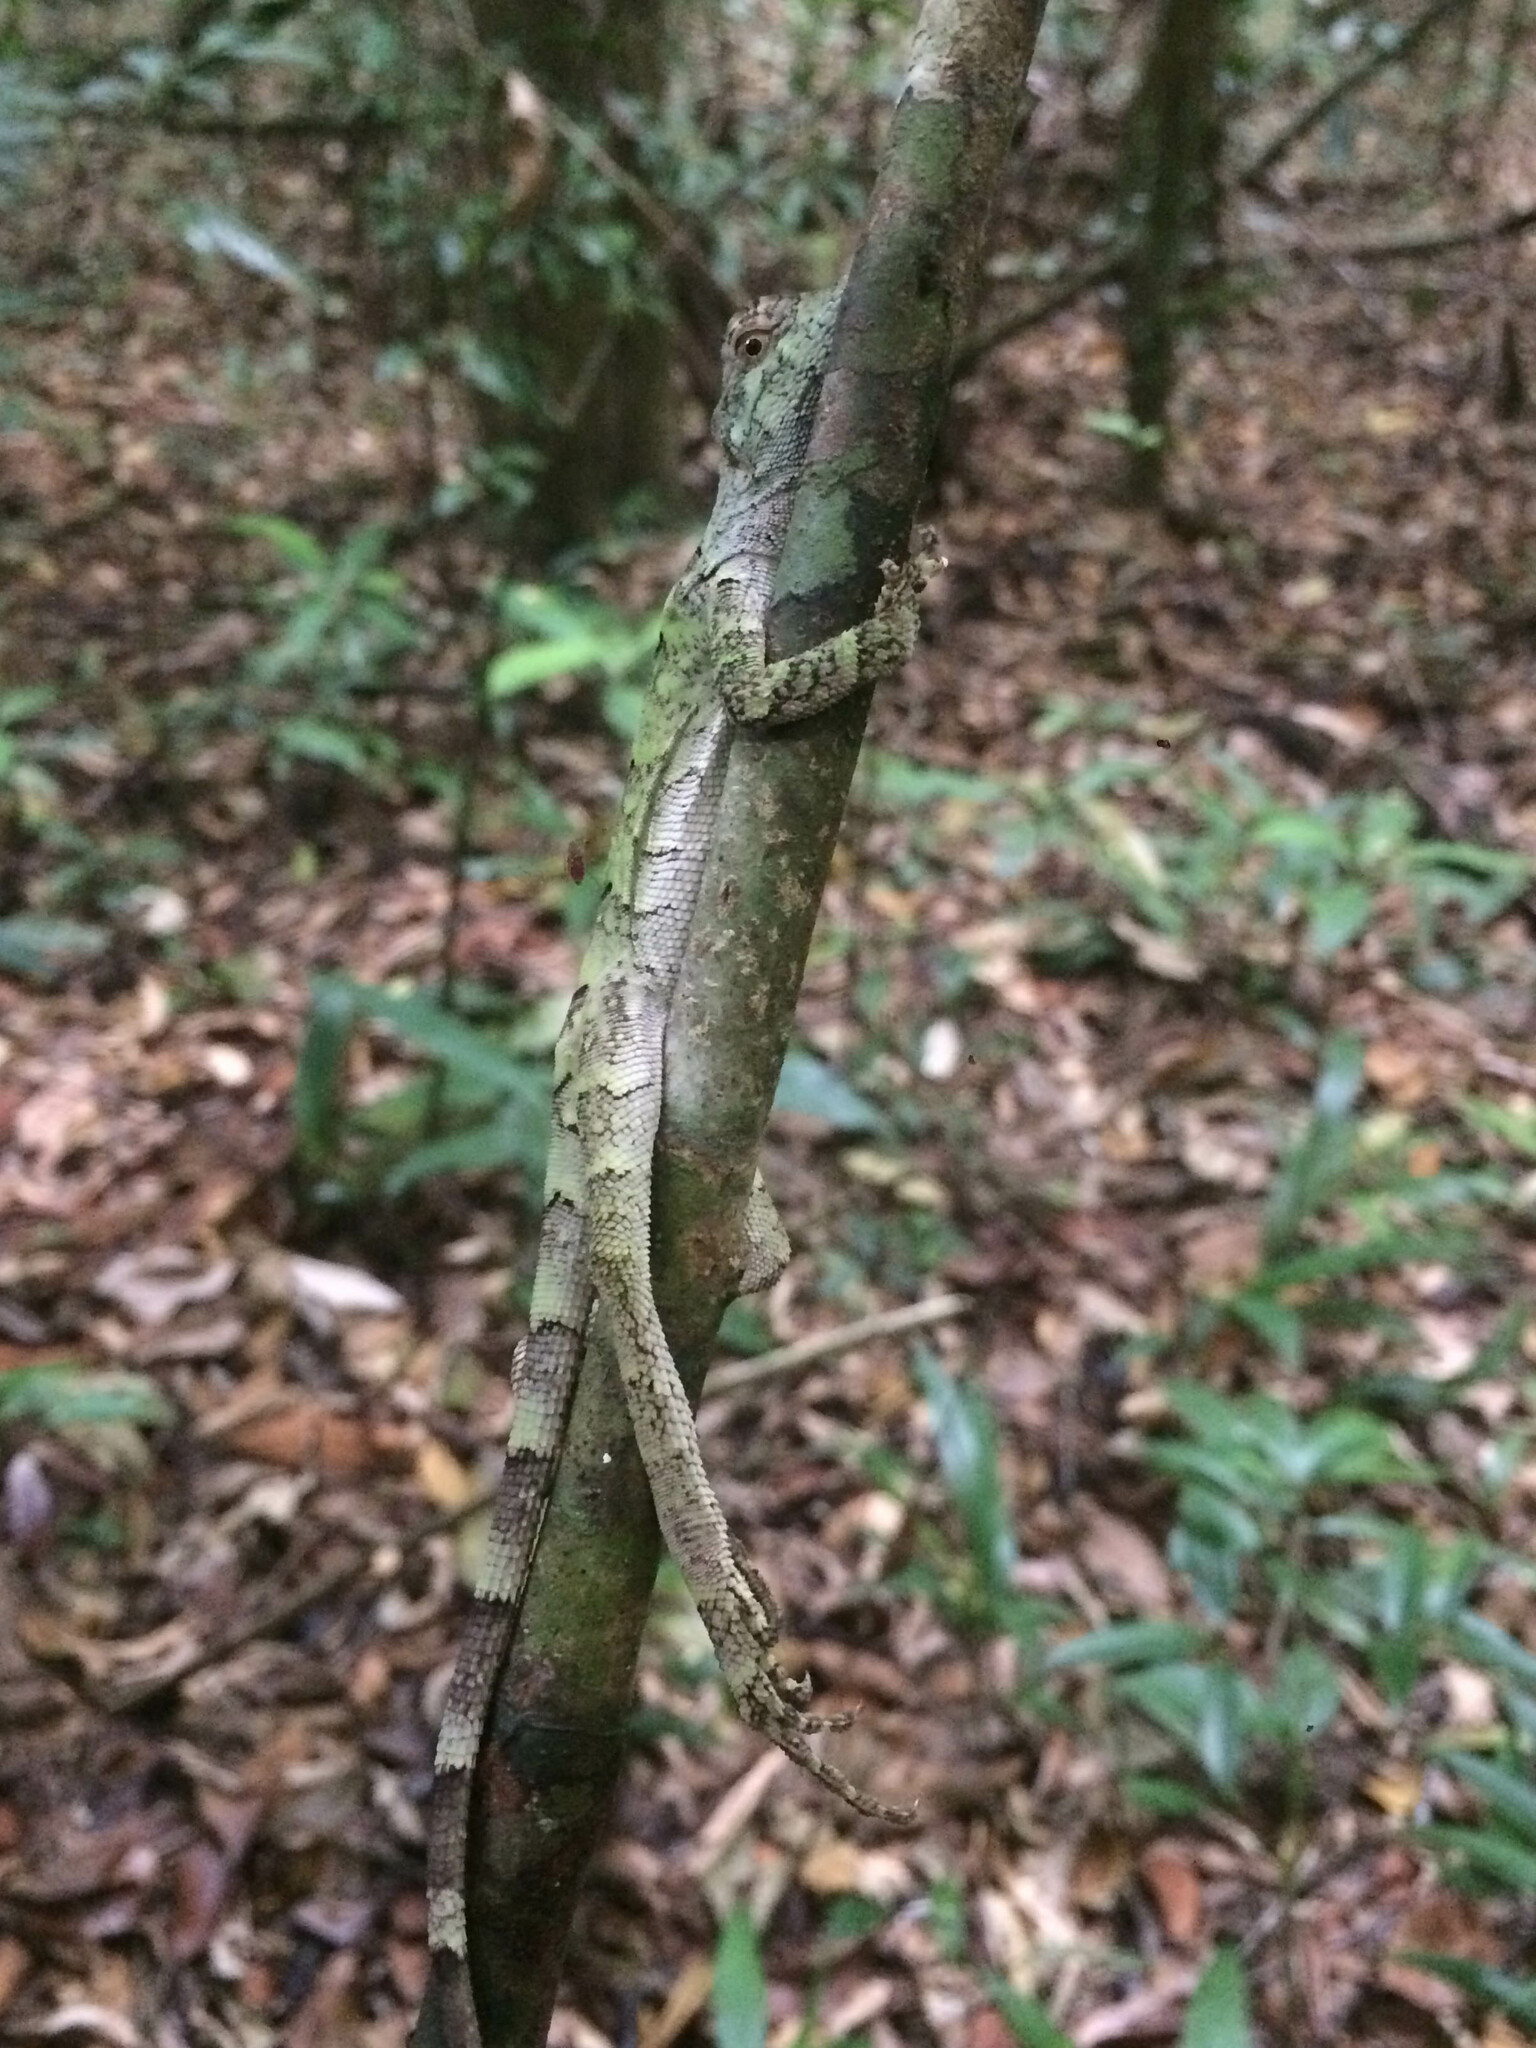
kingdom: Animalia
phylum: Chordata
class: Squamata
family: Leiosauridae
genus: Enyalius
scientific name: Enyalius catenatus
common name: Wied's fathead anole
